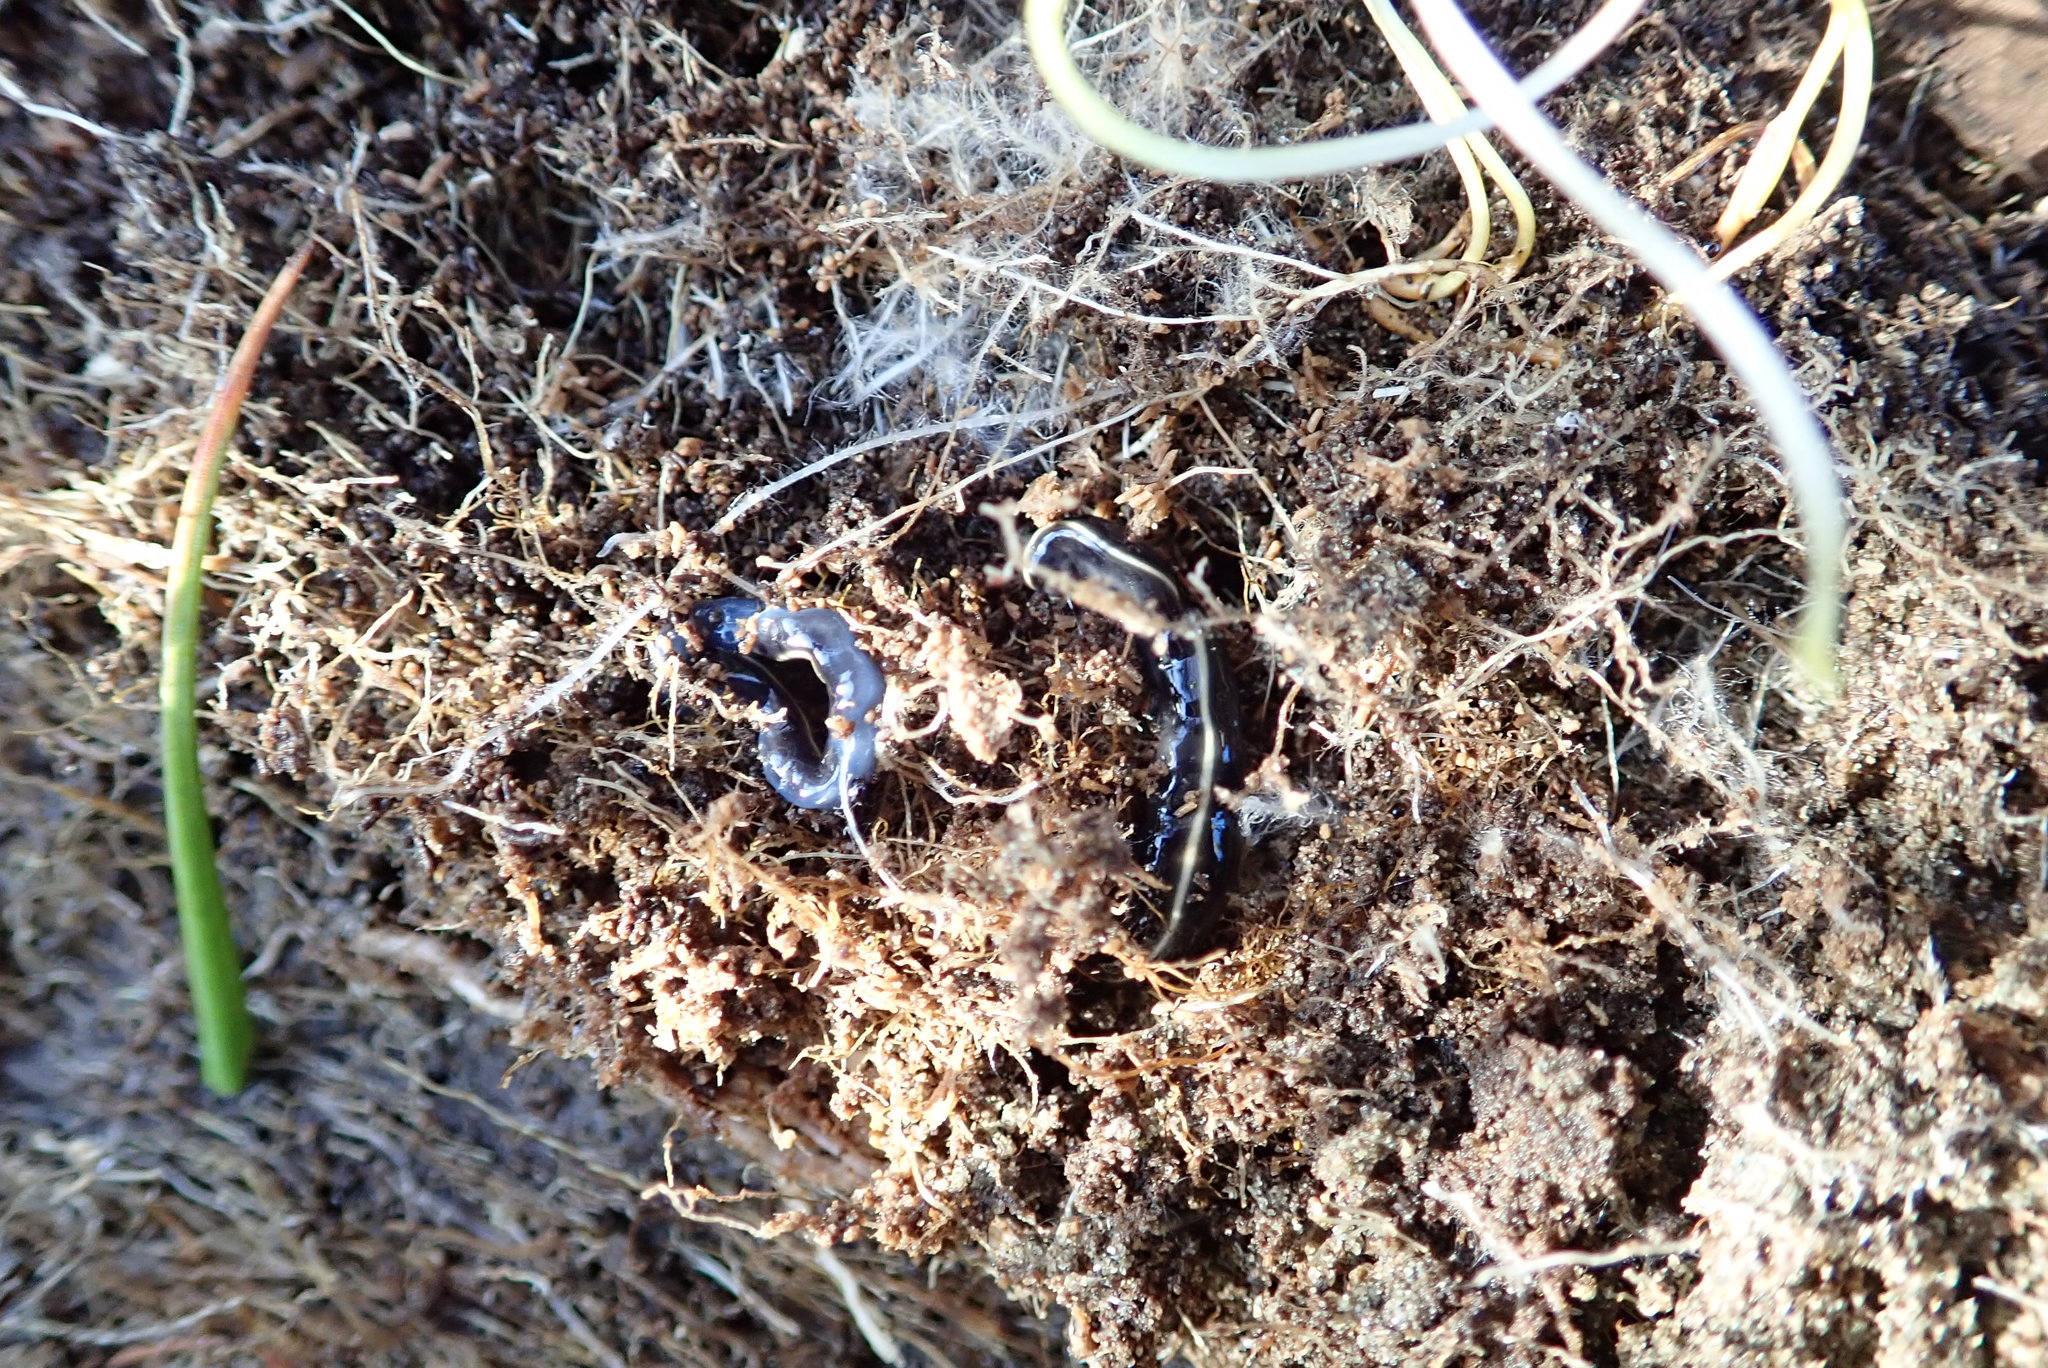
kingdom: Animalia
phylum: Platyhelminthes
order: Tricladida
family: Geoplanidae
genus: Caenoplana
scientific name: Caenoplana coerulea
